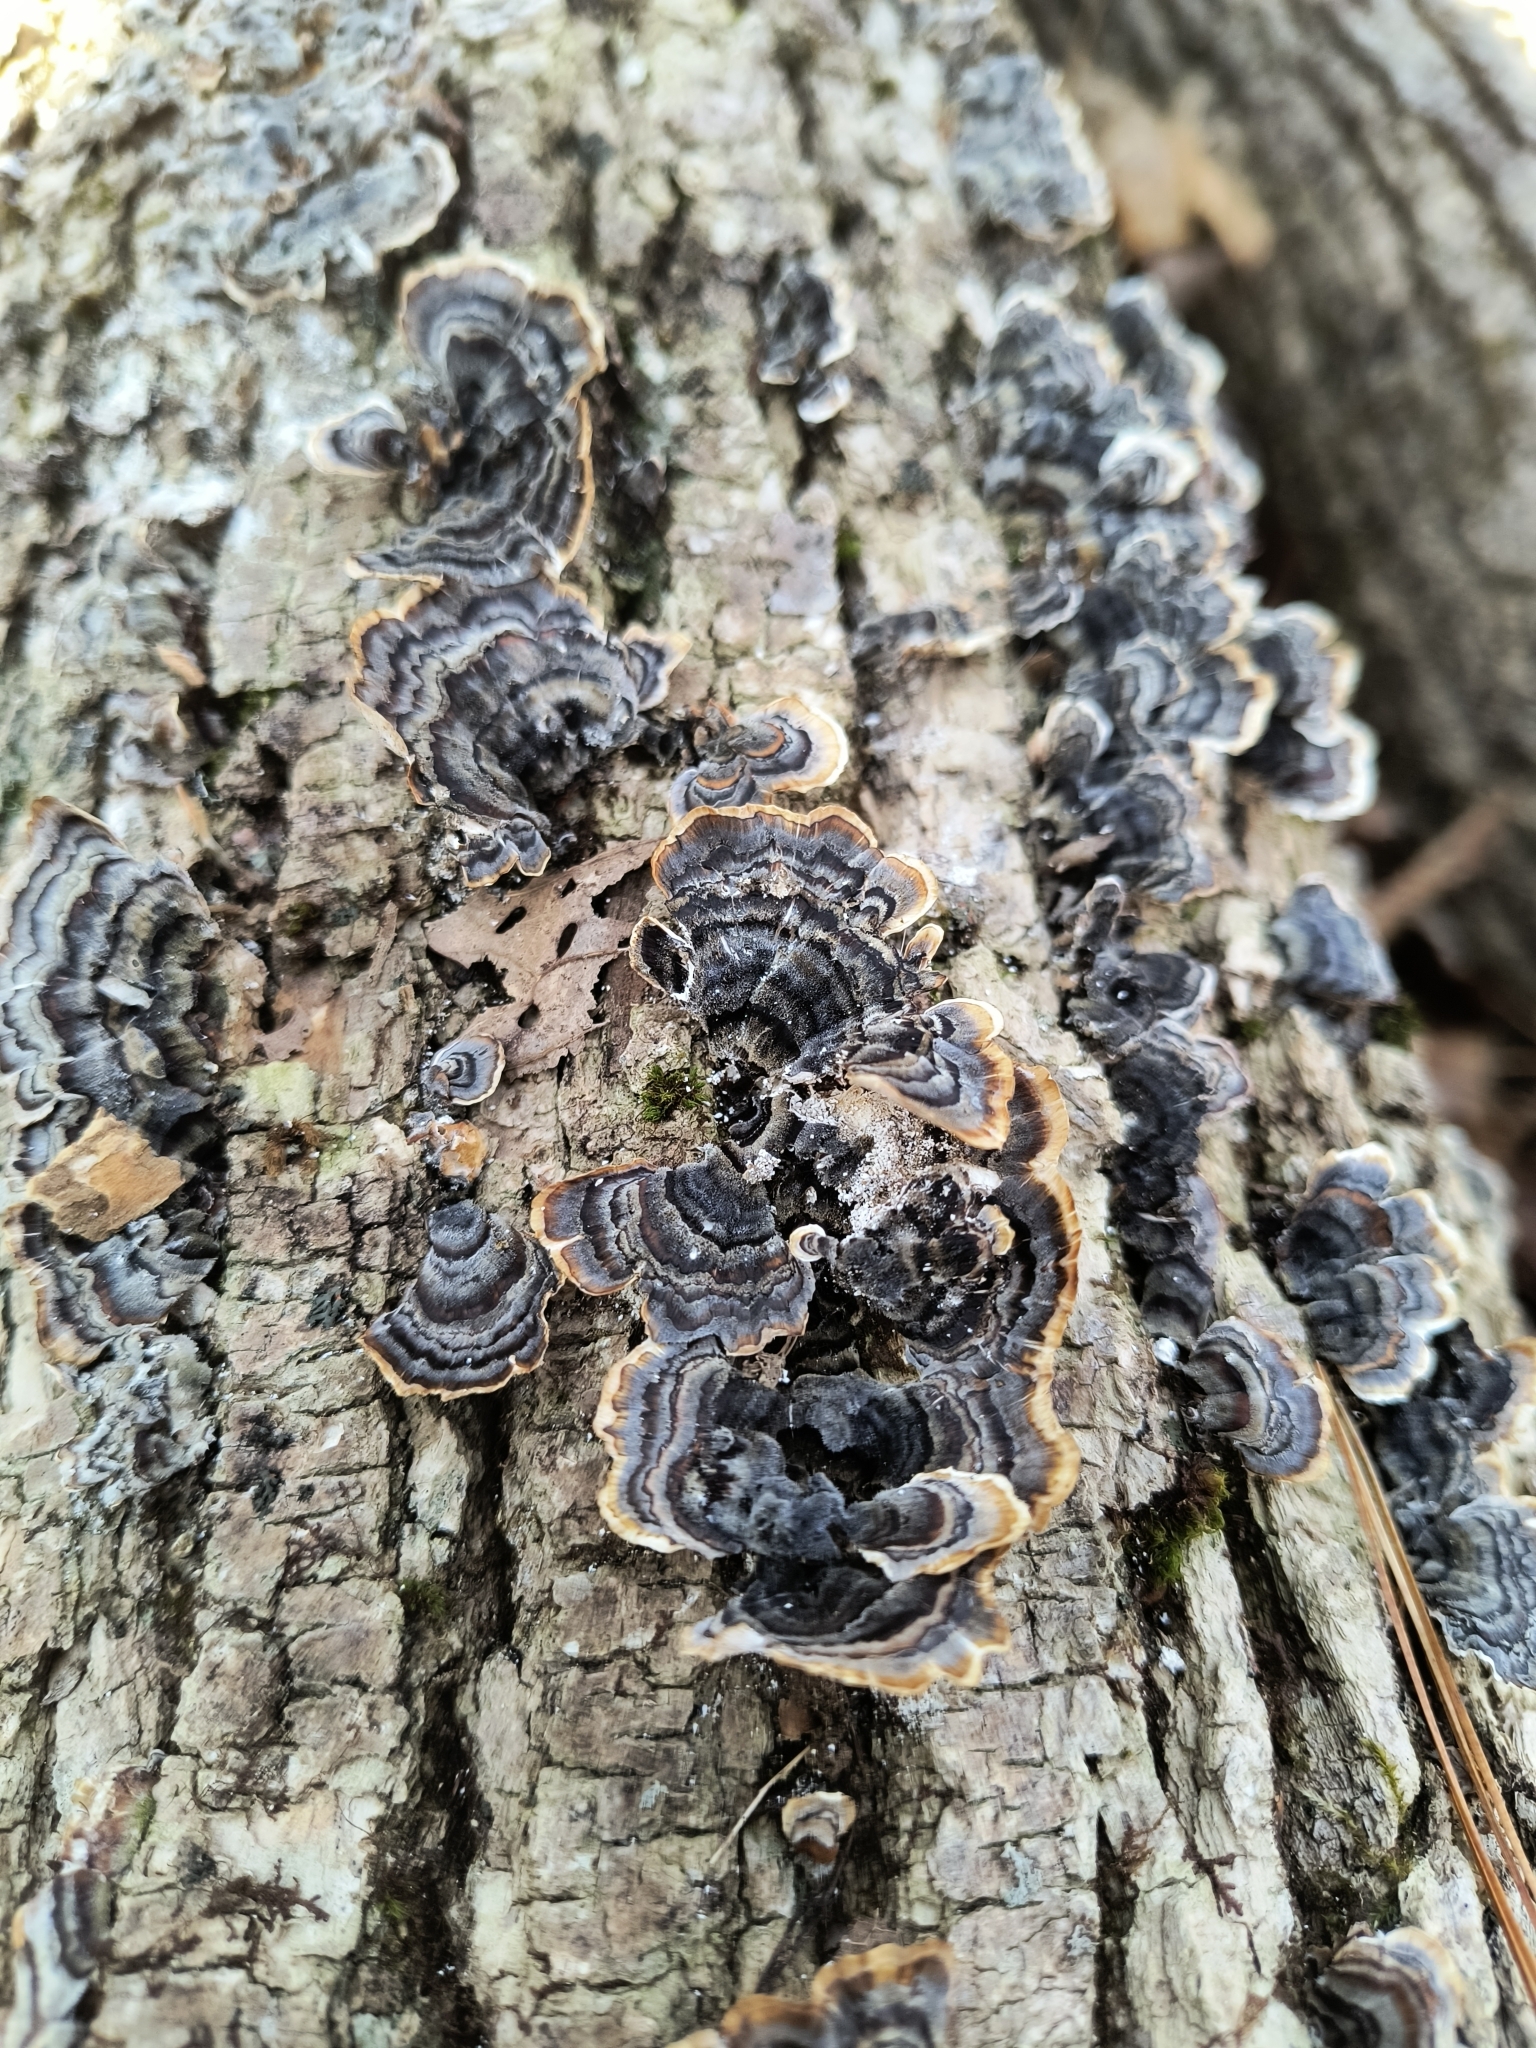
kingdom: Fungi
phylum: Basidiomycota
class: Agaricomycetes
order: Polyporales
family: Polyporaceae
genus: Trametes
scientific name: Trametes versicolor
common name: Turkeytail
